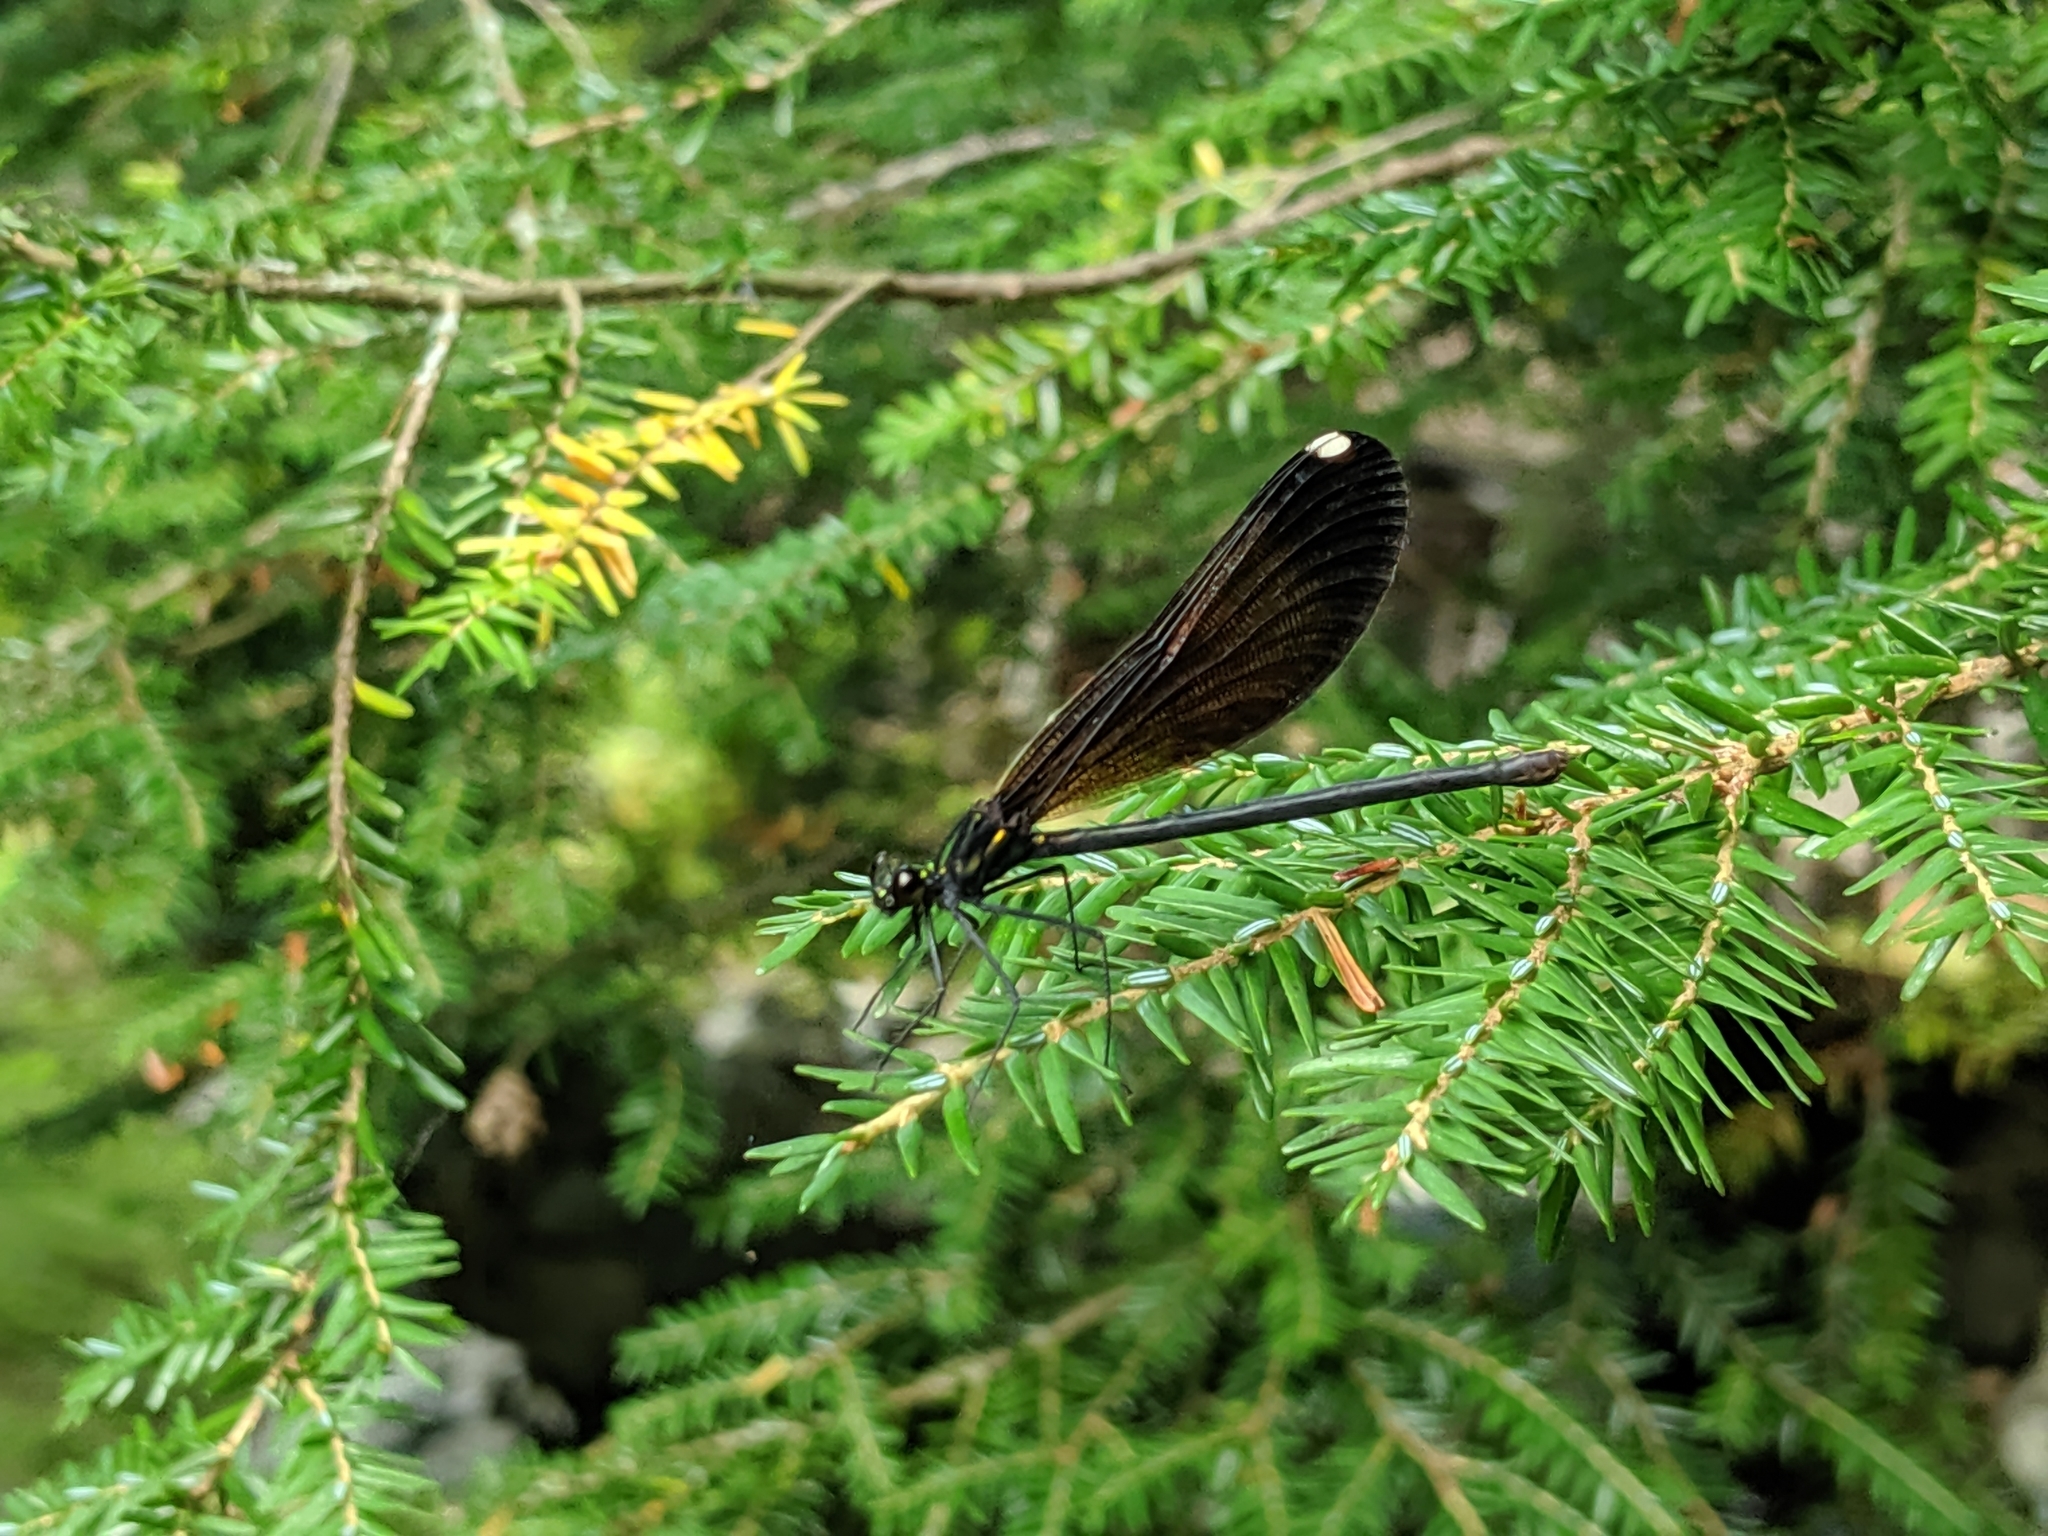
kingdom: Animalia
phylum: Arthropoda
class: Insecta
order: Odonata
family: Calopterygidae
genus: Calopteryx
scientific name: Calopteryx maculata
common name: Ebony jewelwing
